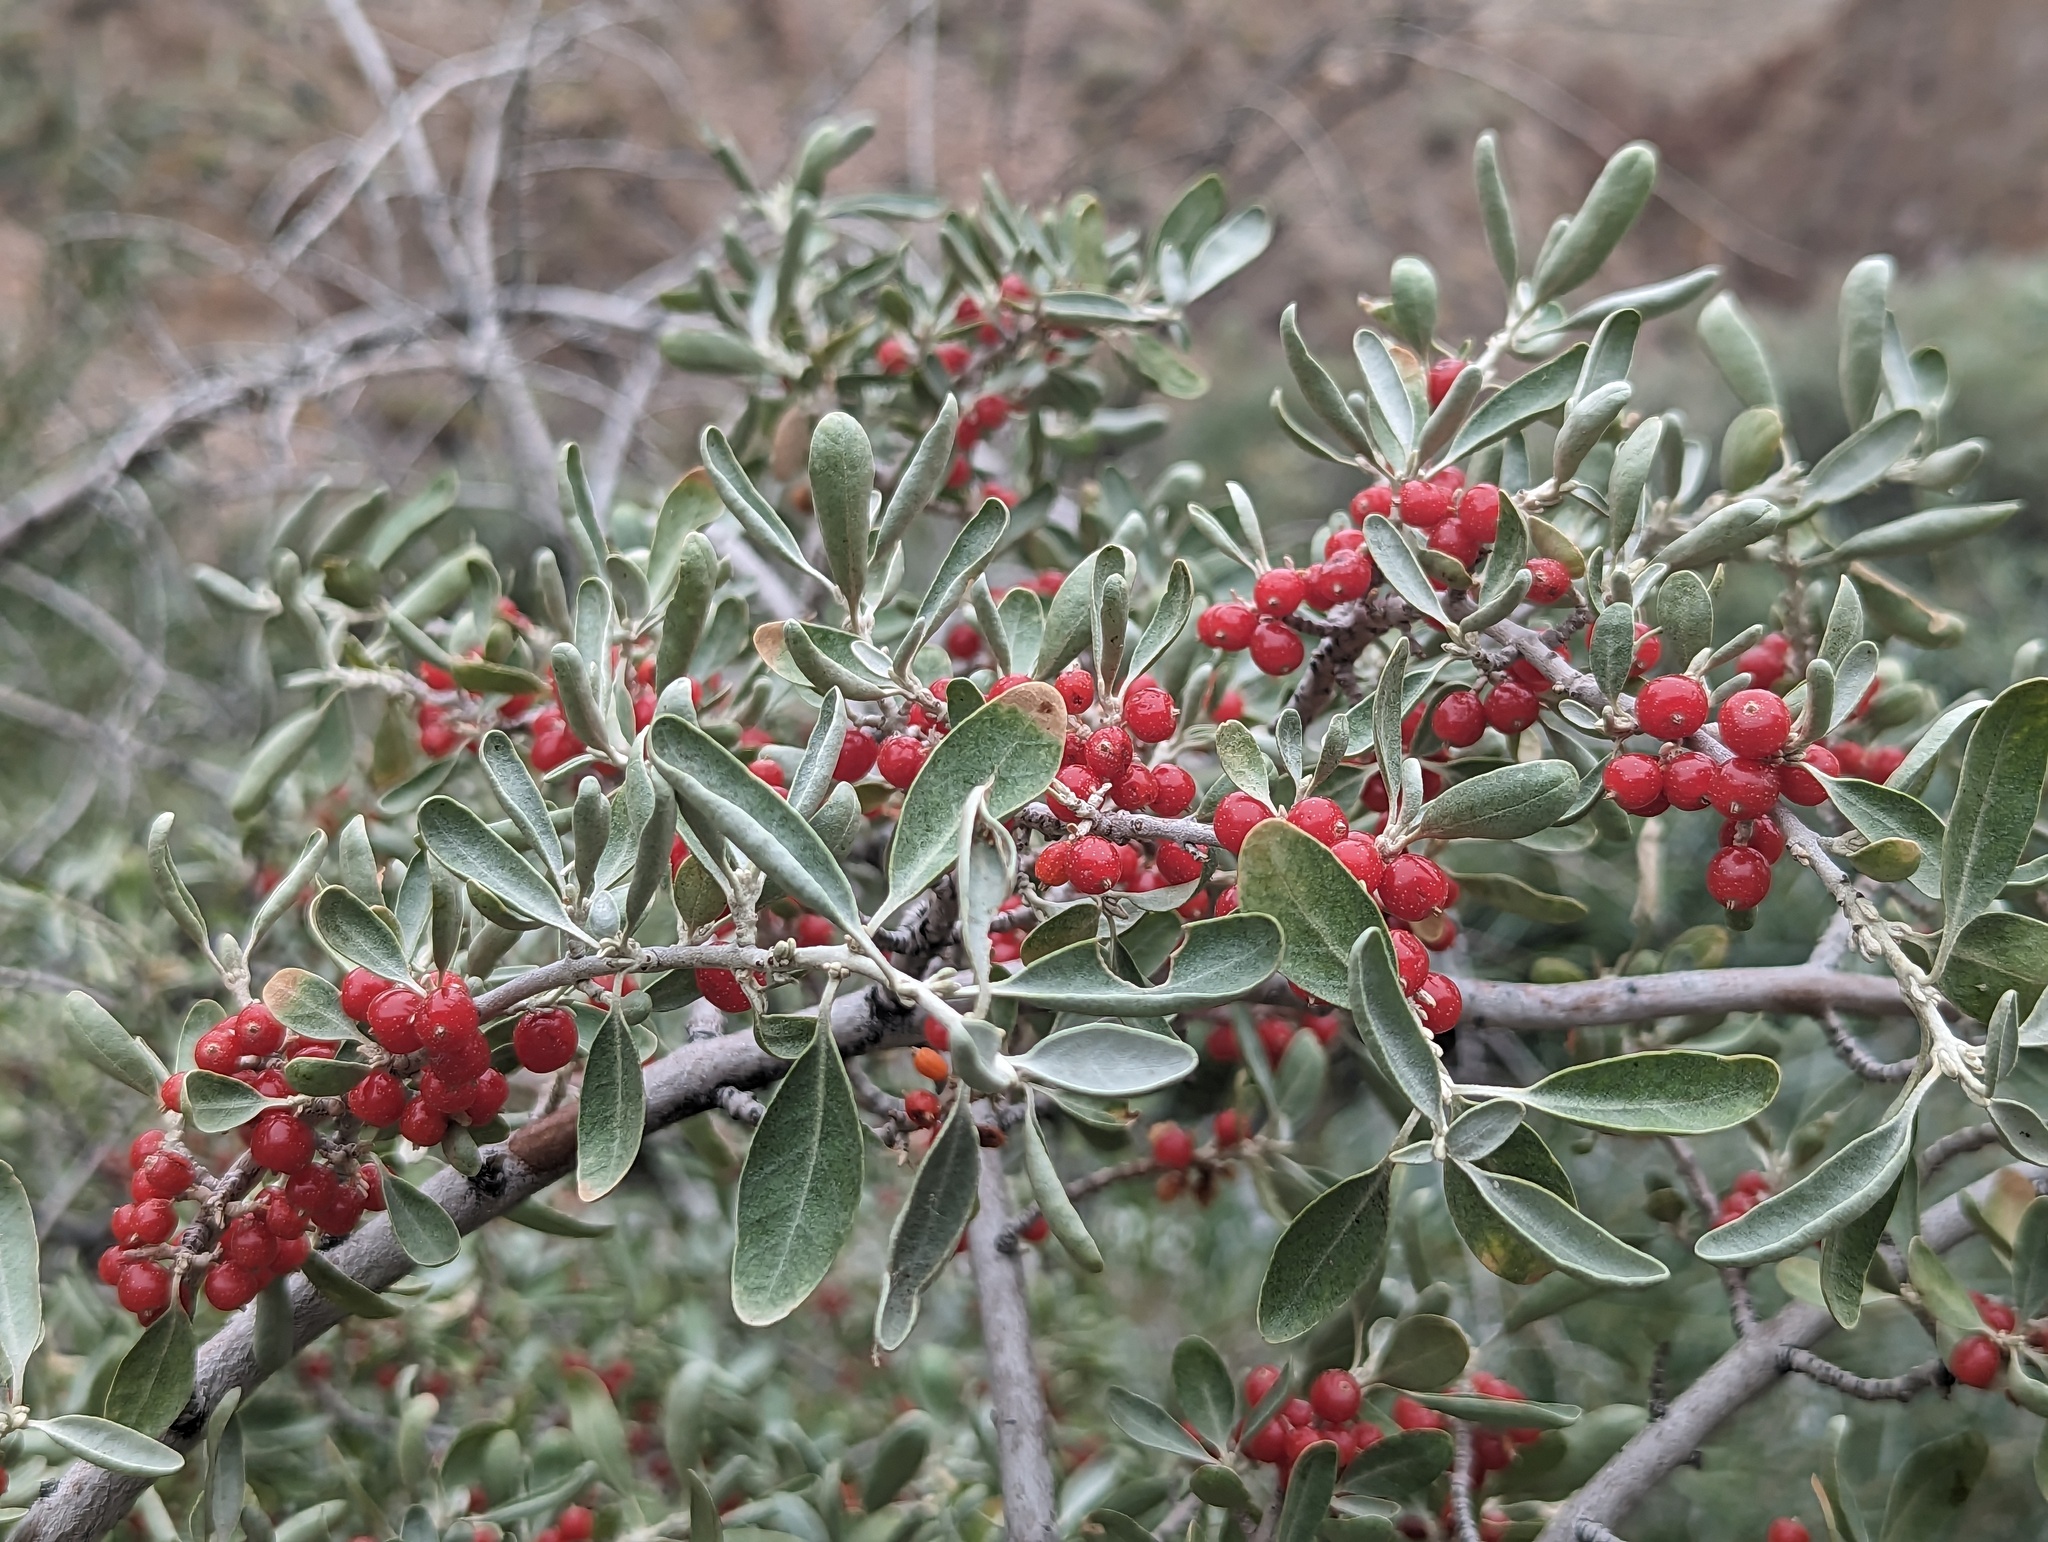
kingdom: Plantae
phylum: Tracheophyta
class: Magnoliopsida
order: Rosales
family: Elaeagnaceae
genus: Shepherdia
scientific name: Shepherdia argentea
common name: Silver buffaloberry
